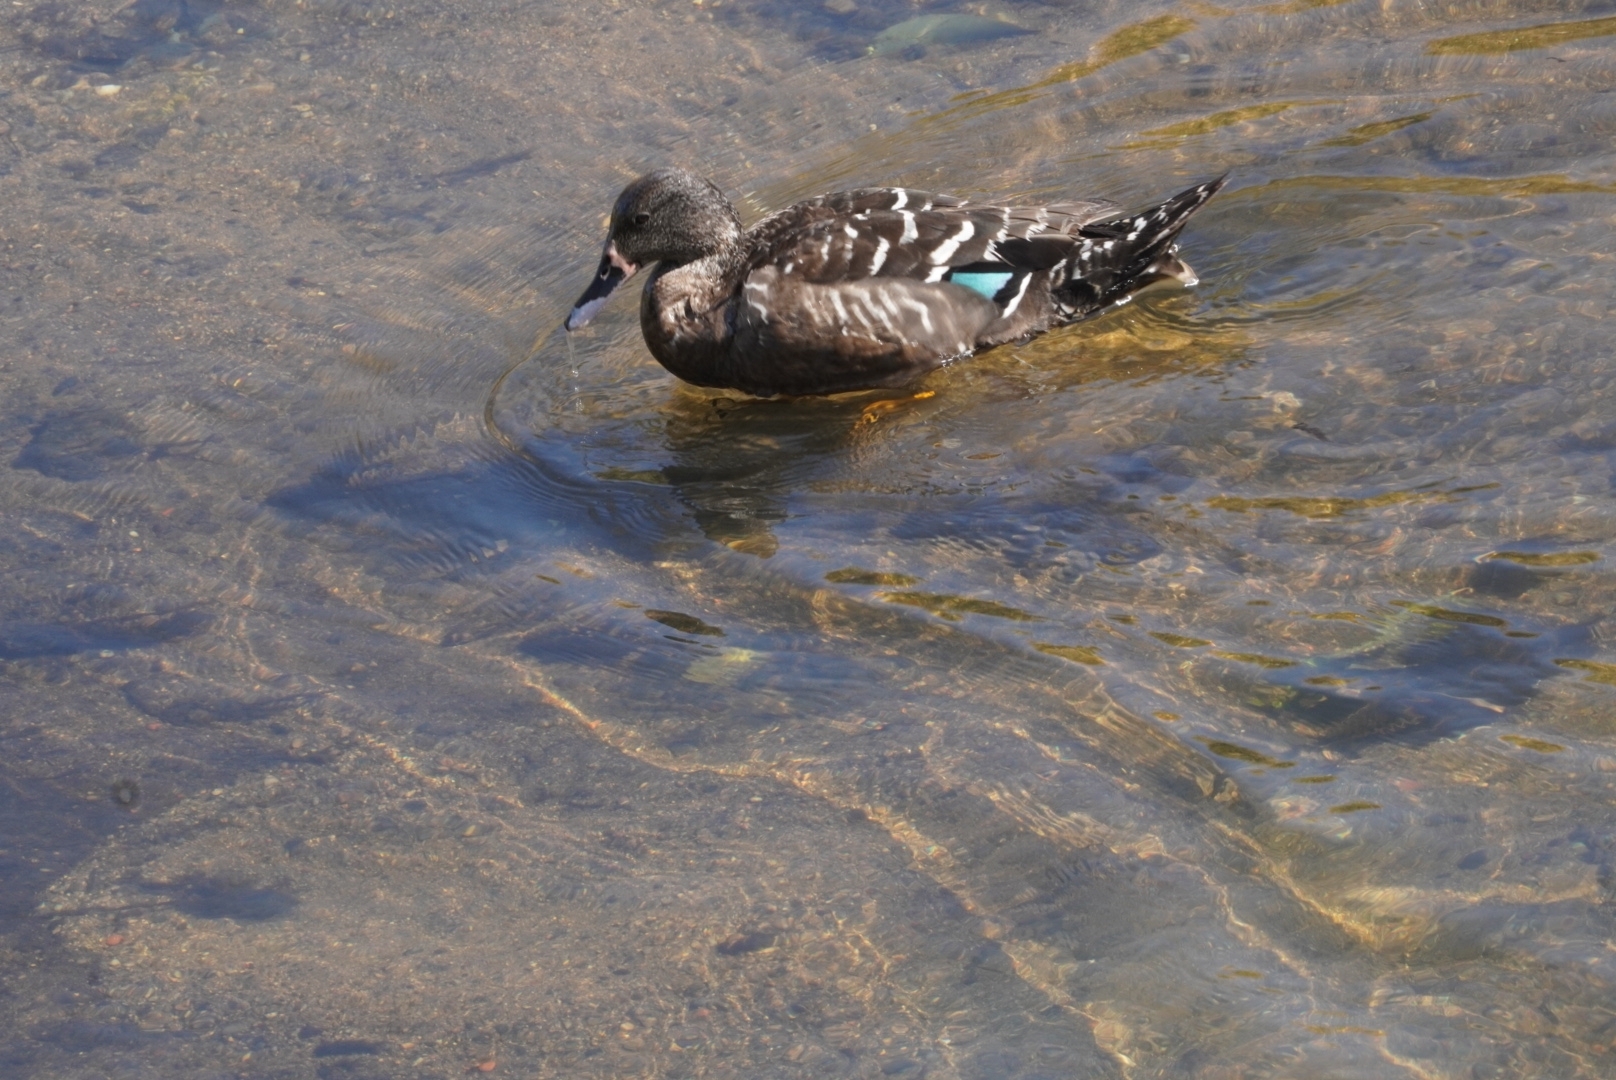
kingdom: Animalia
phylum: Chordata
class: Aves
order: Anseriformes
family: Anatidae
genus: Anas
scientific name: Anas sparsa
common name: African black duck
